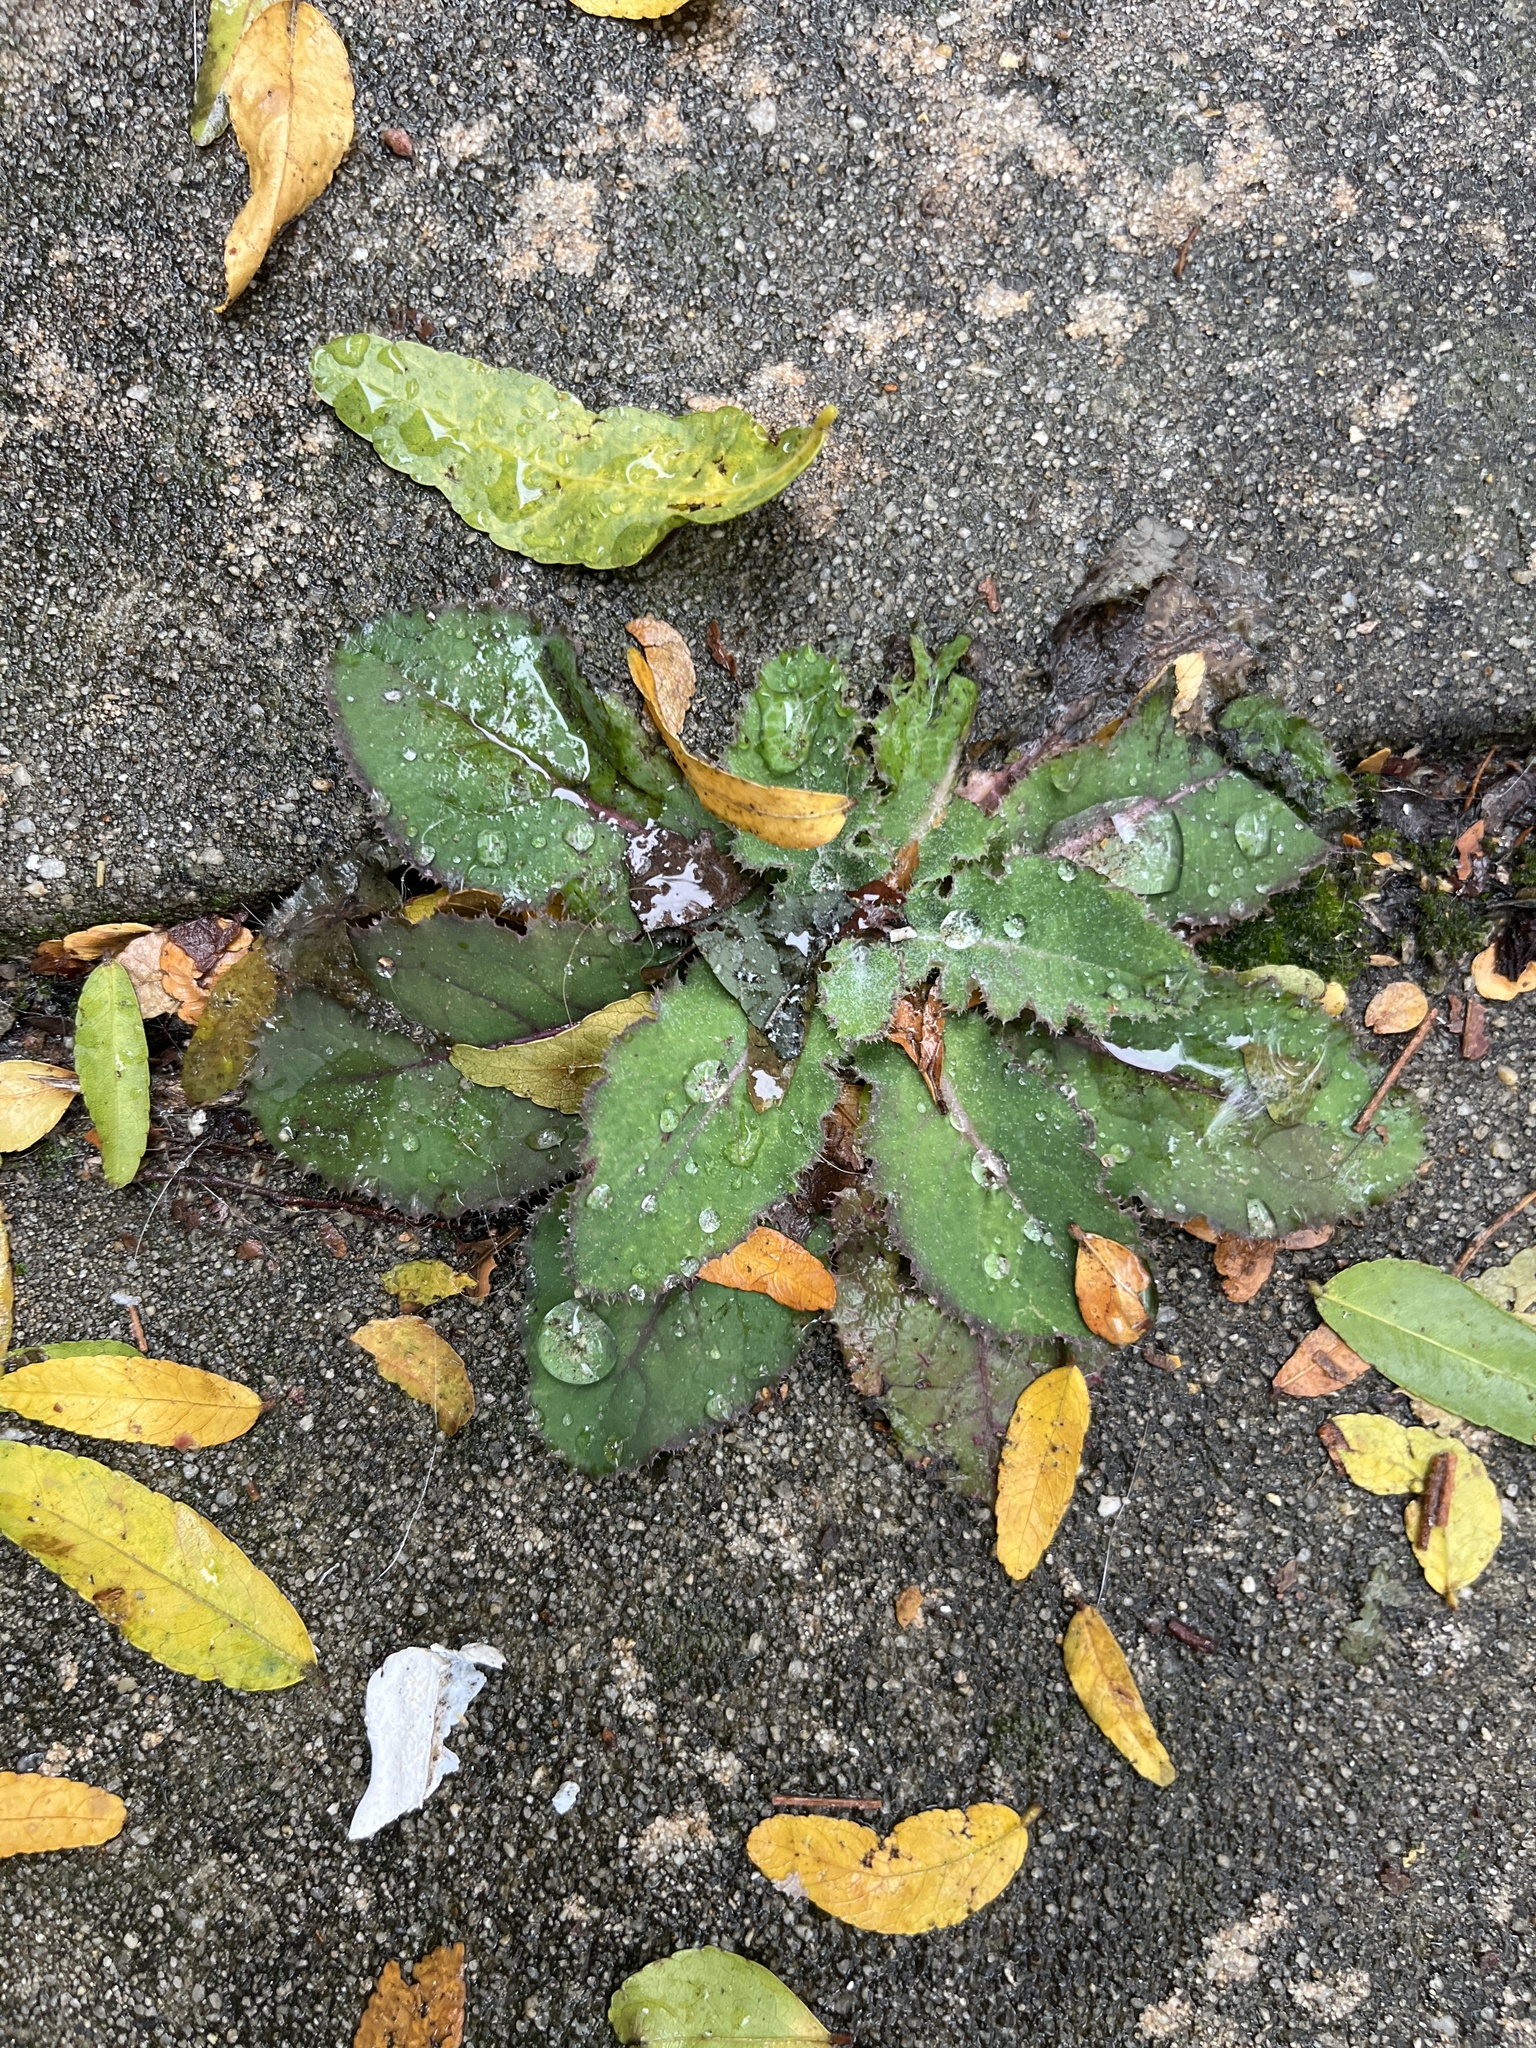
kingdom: Plantae
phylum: Tracheophyta
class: Magnoliopsida
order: Asterales
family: Asteraceae
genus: Sonchus
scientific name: Sonchus oleraceus
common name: Common sowthistle
